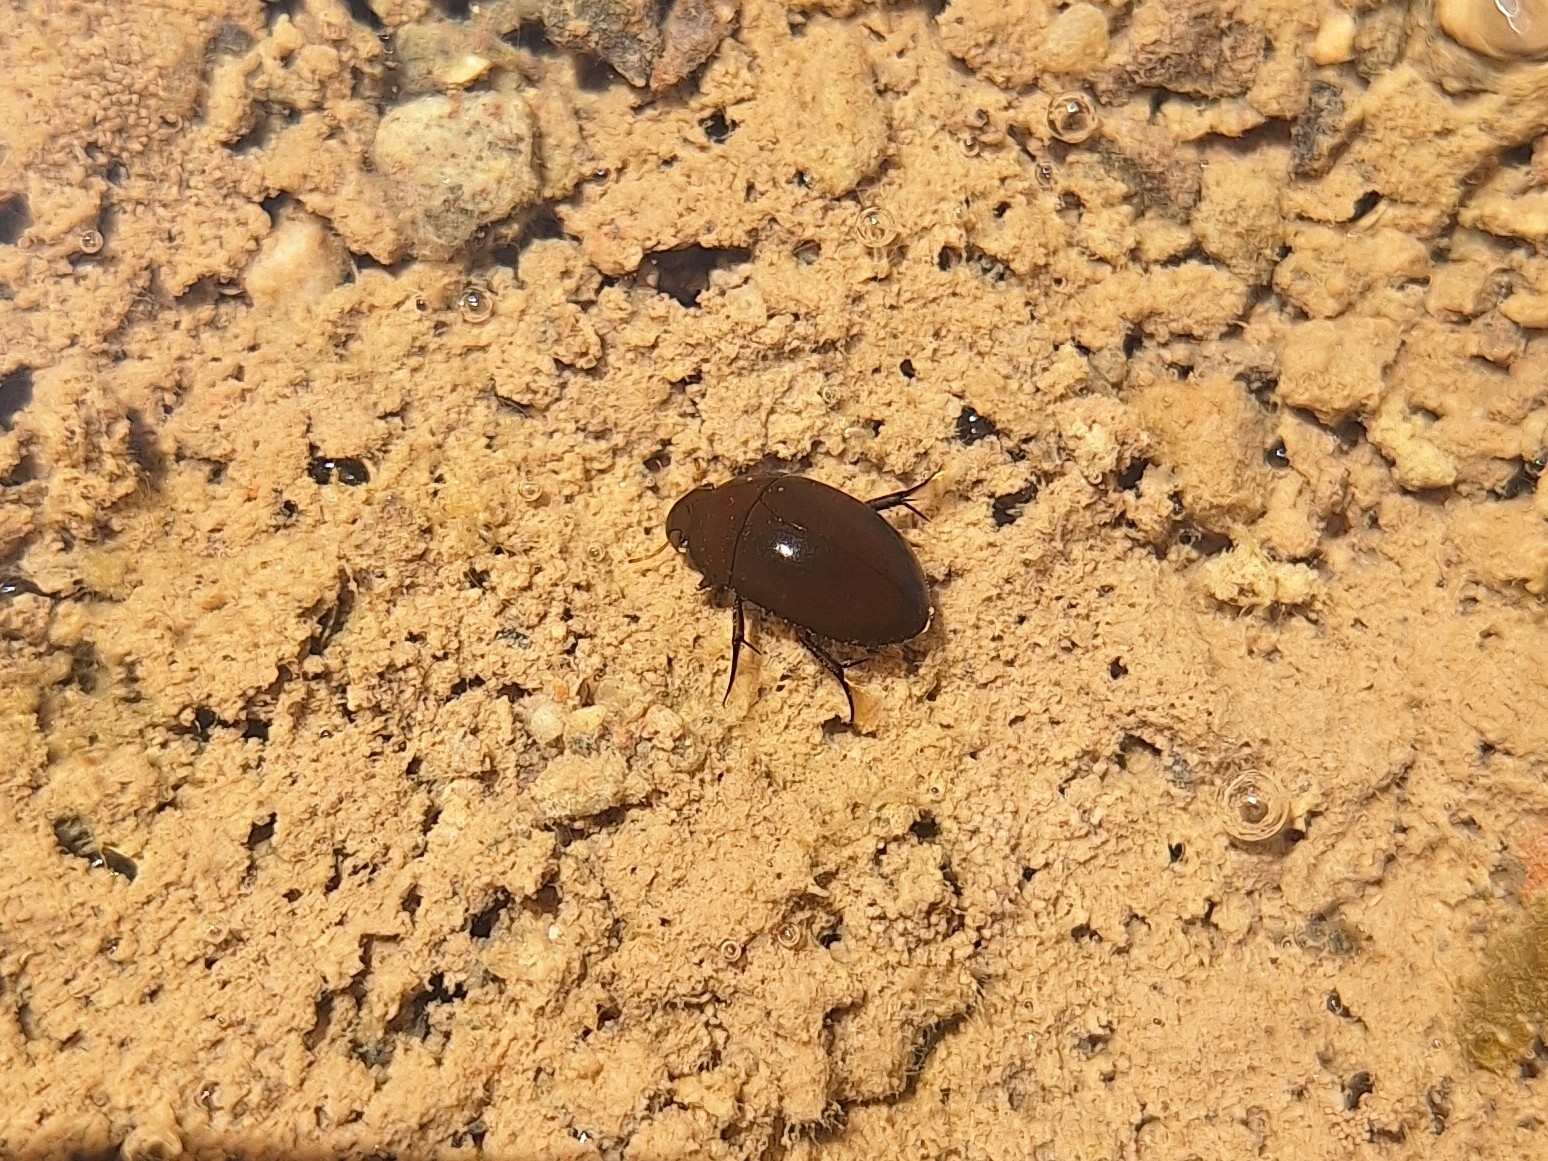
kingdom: Animalia
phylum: Arthropoda
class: Insecta
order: Coleoptera
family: Hydrophilidae
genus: Tropisternus
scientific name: Tropisternus affinis
